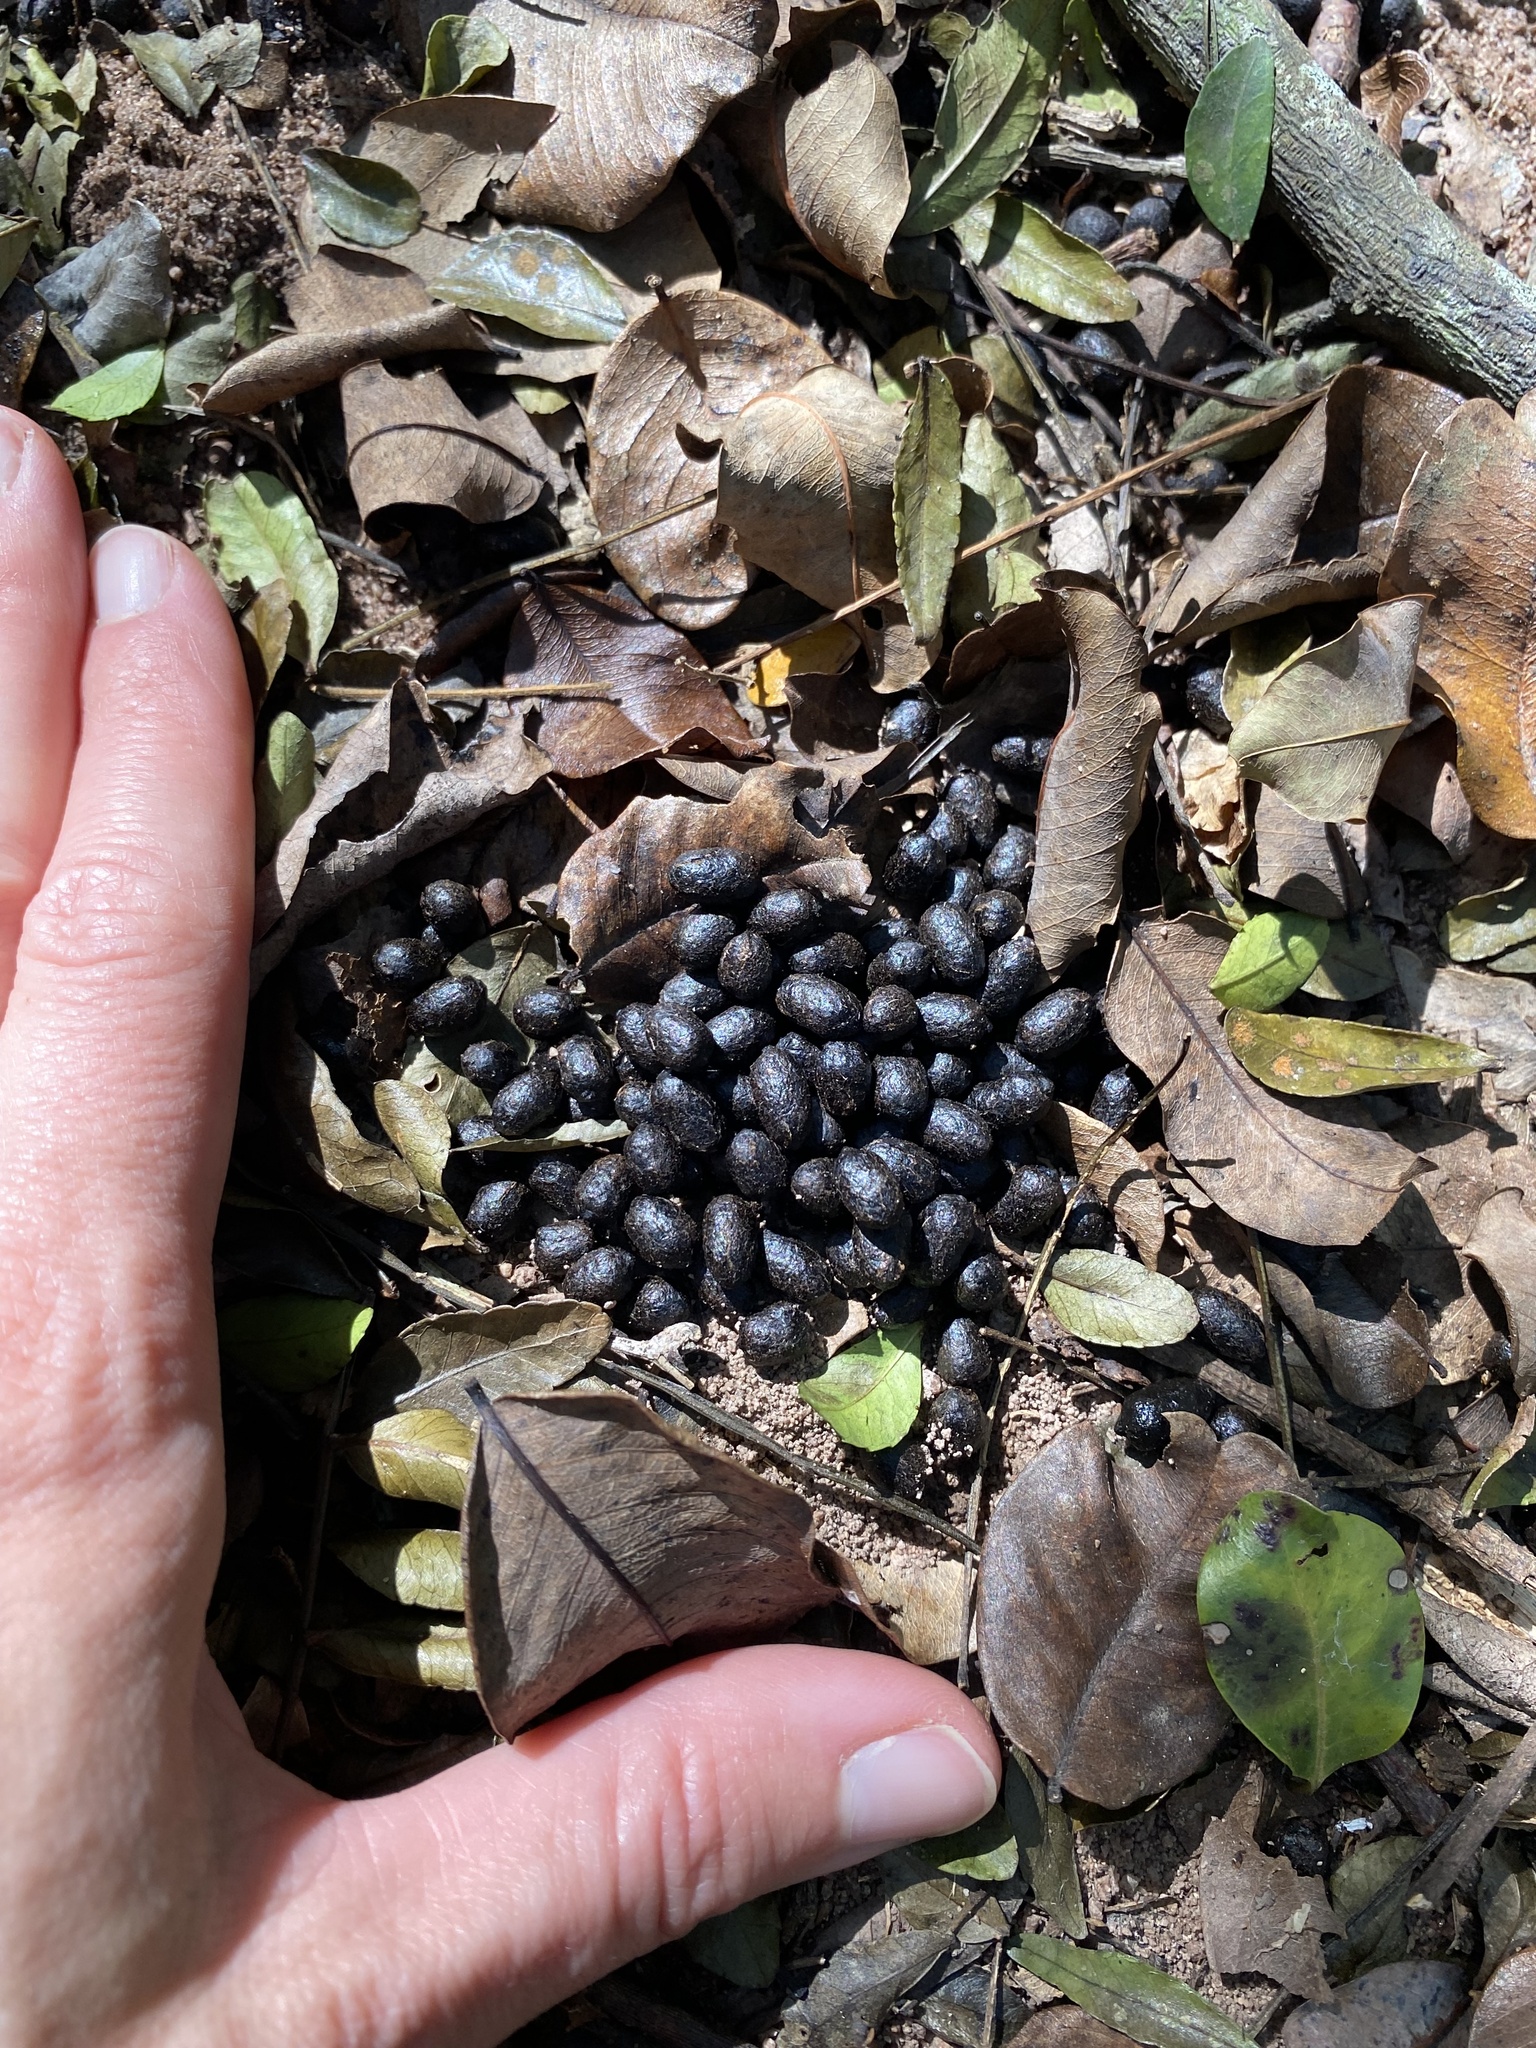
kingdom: Animalia
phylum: Chordata
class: Mammalia
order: Artiodactyla
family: Bovidae
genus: Philantomba
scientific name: Philantomba monticola
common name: Blue duiker
